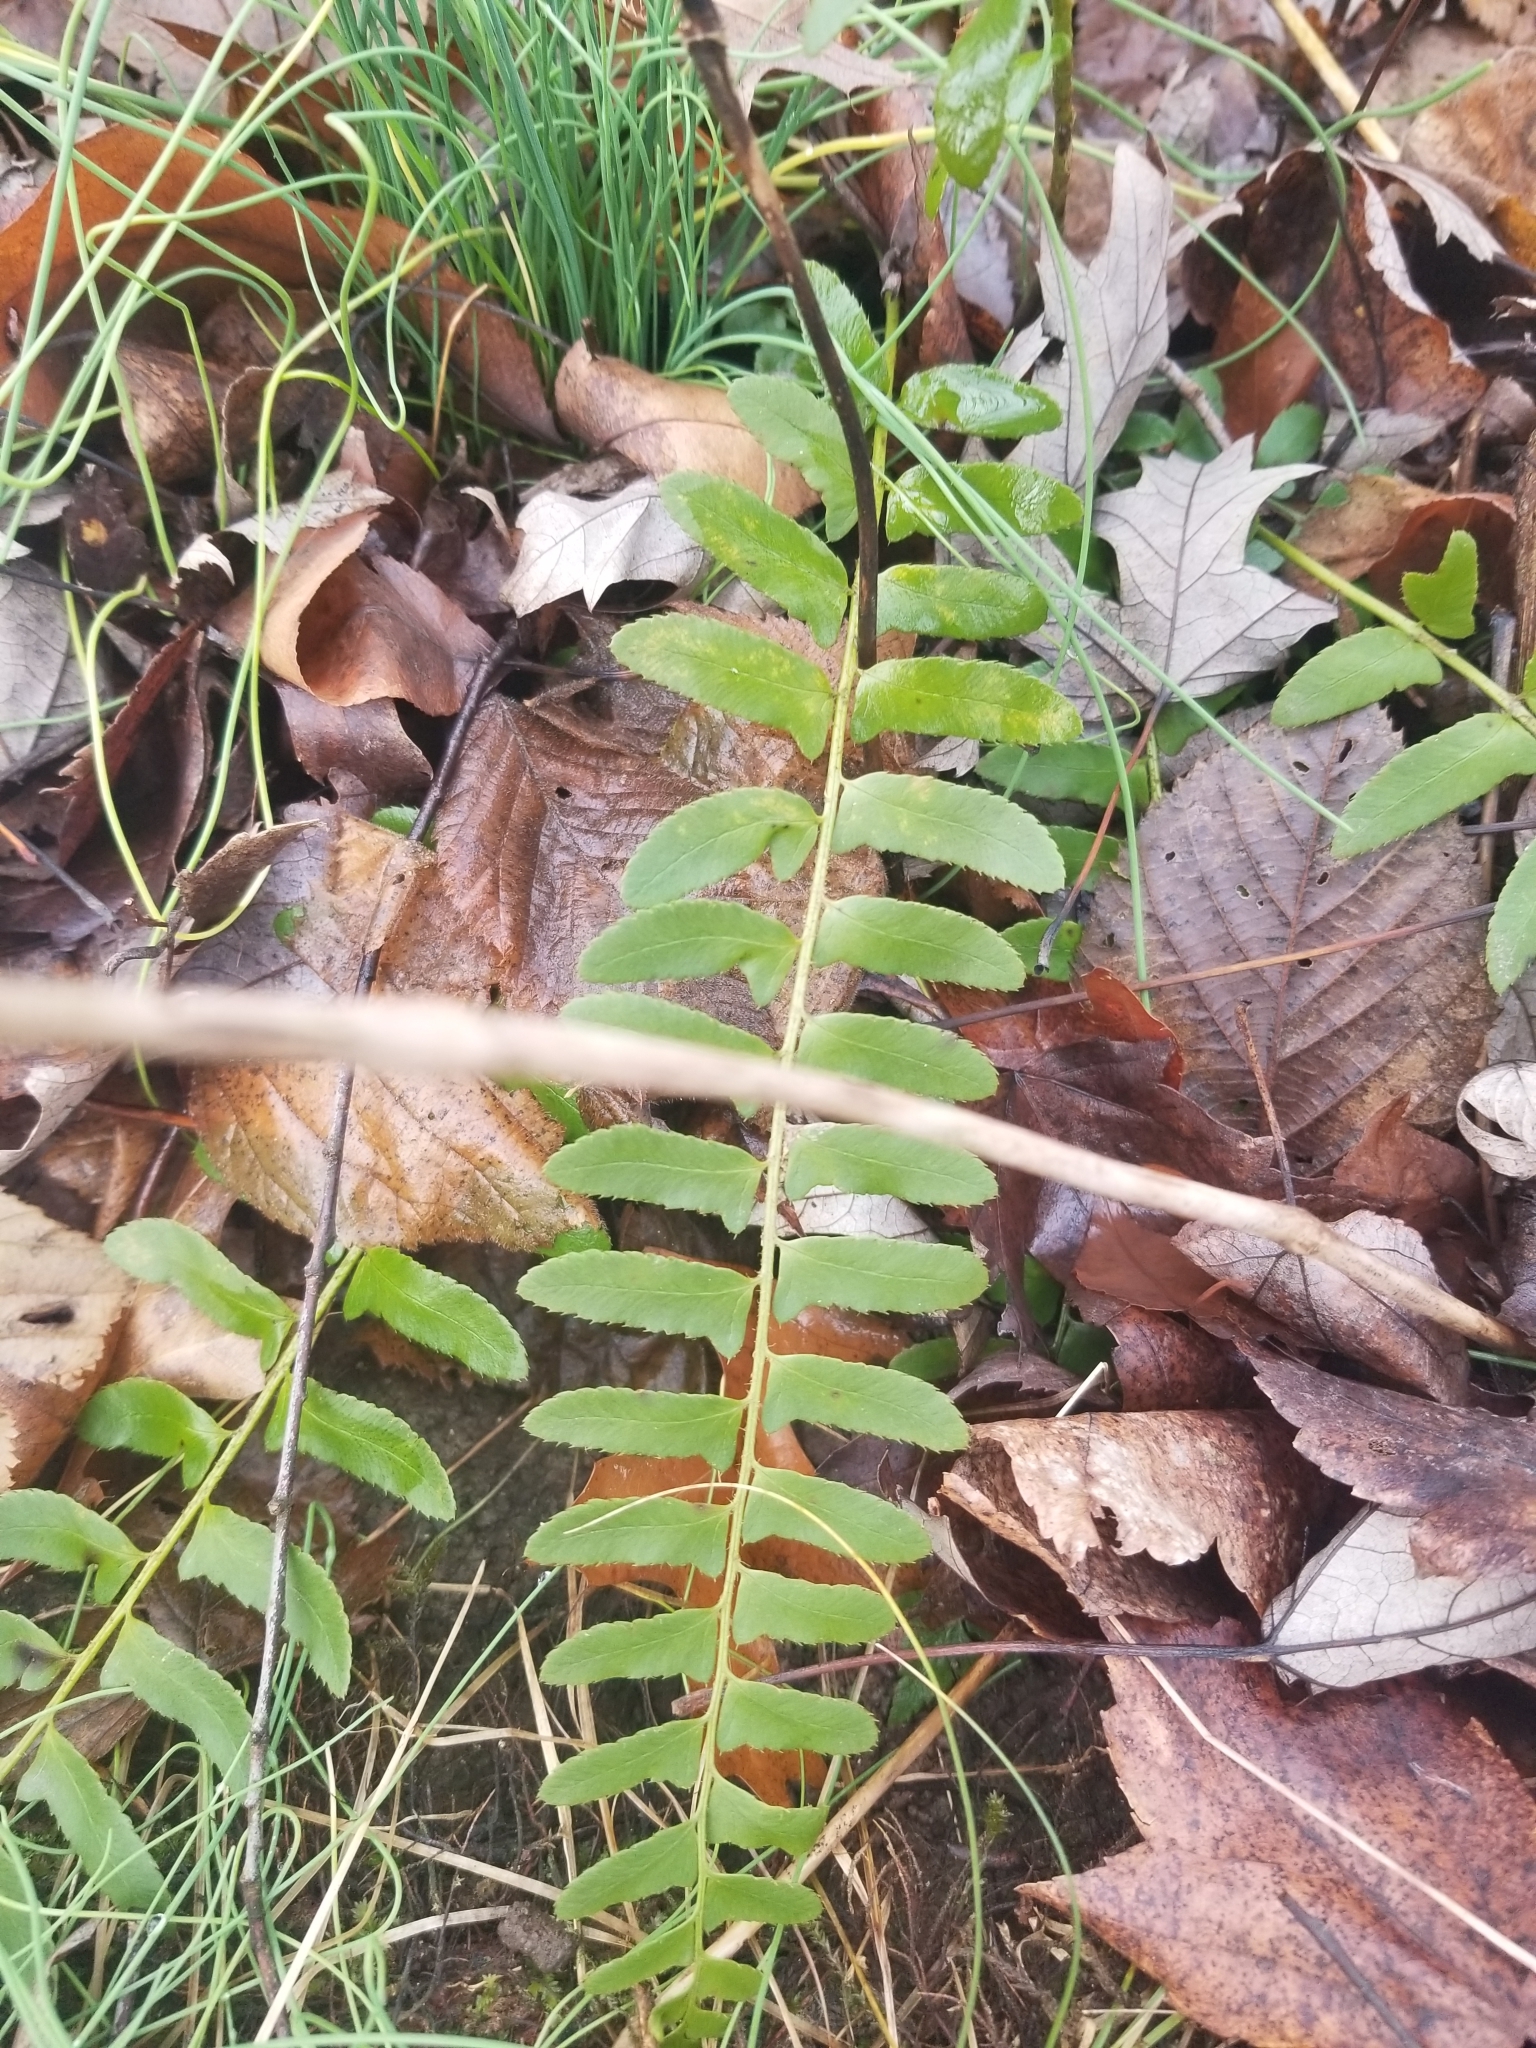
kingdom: Plantae
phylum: Tracheophyta
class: Polypodiopsida
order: Polypodiales
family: Dryopteridaceae
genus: Polystichum
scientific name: Polystichum acrostichoides
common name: Christmas fern
